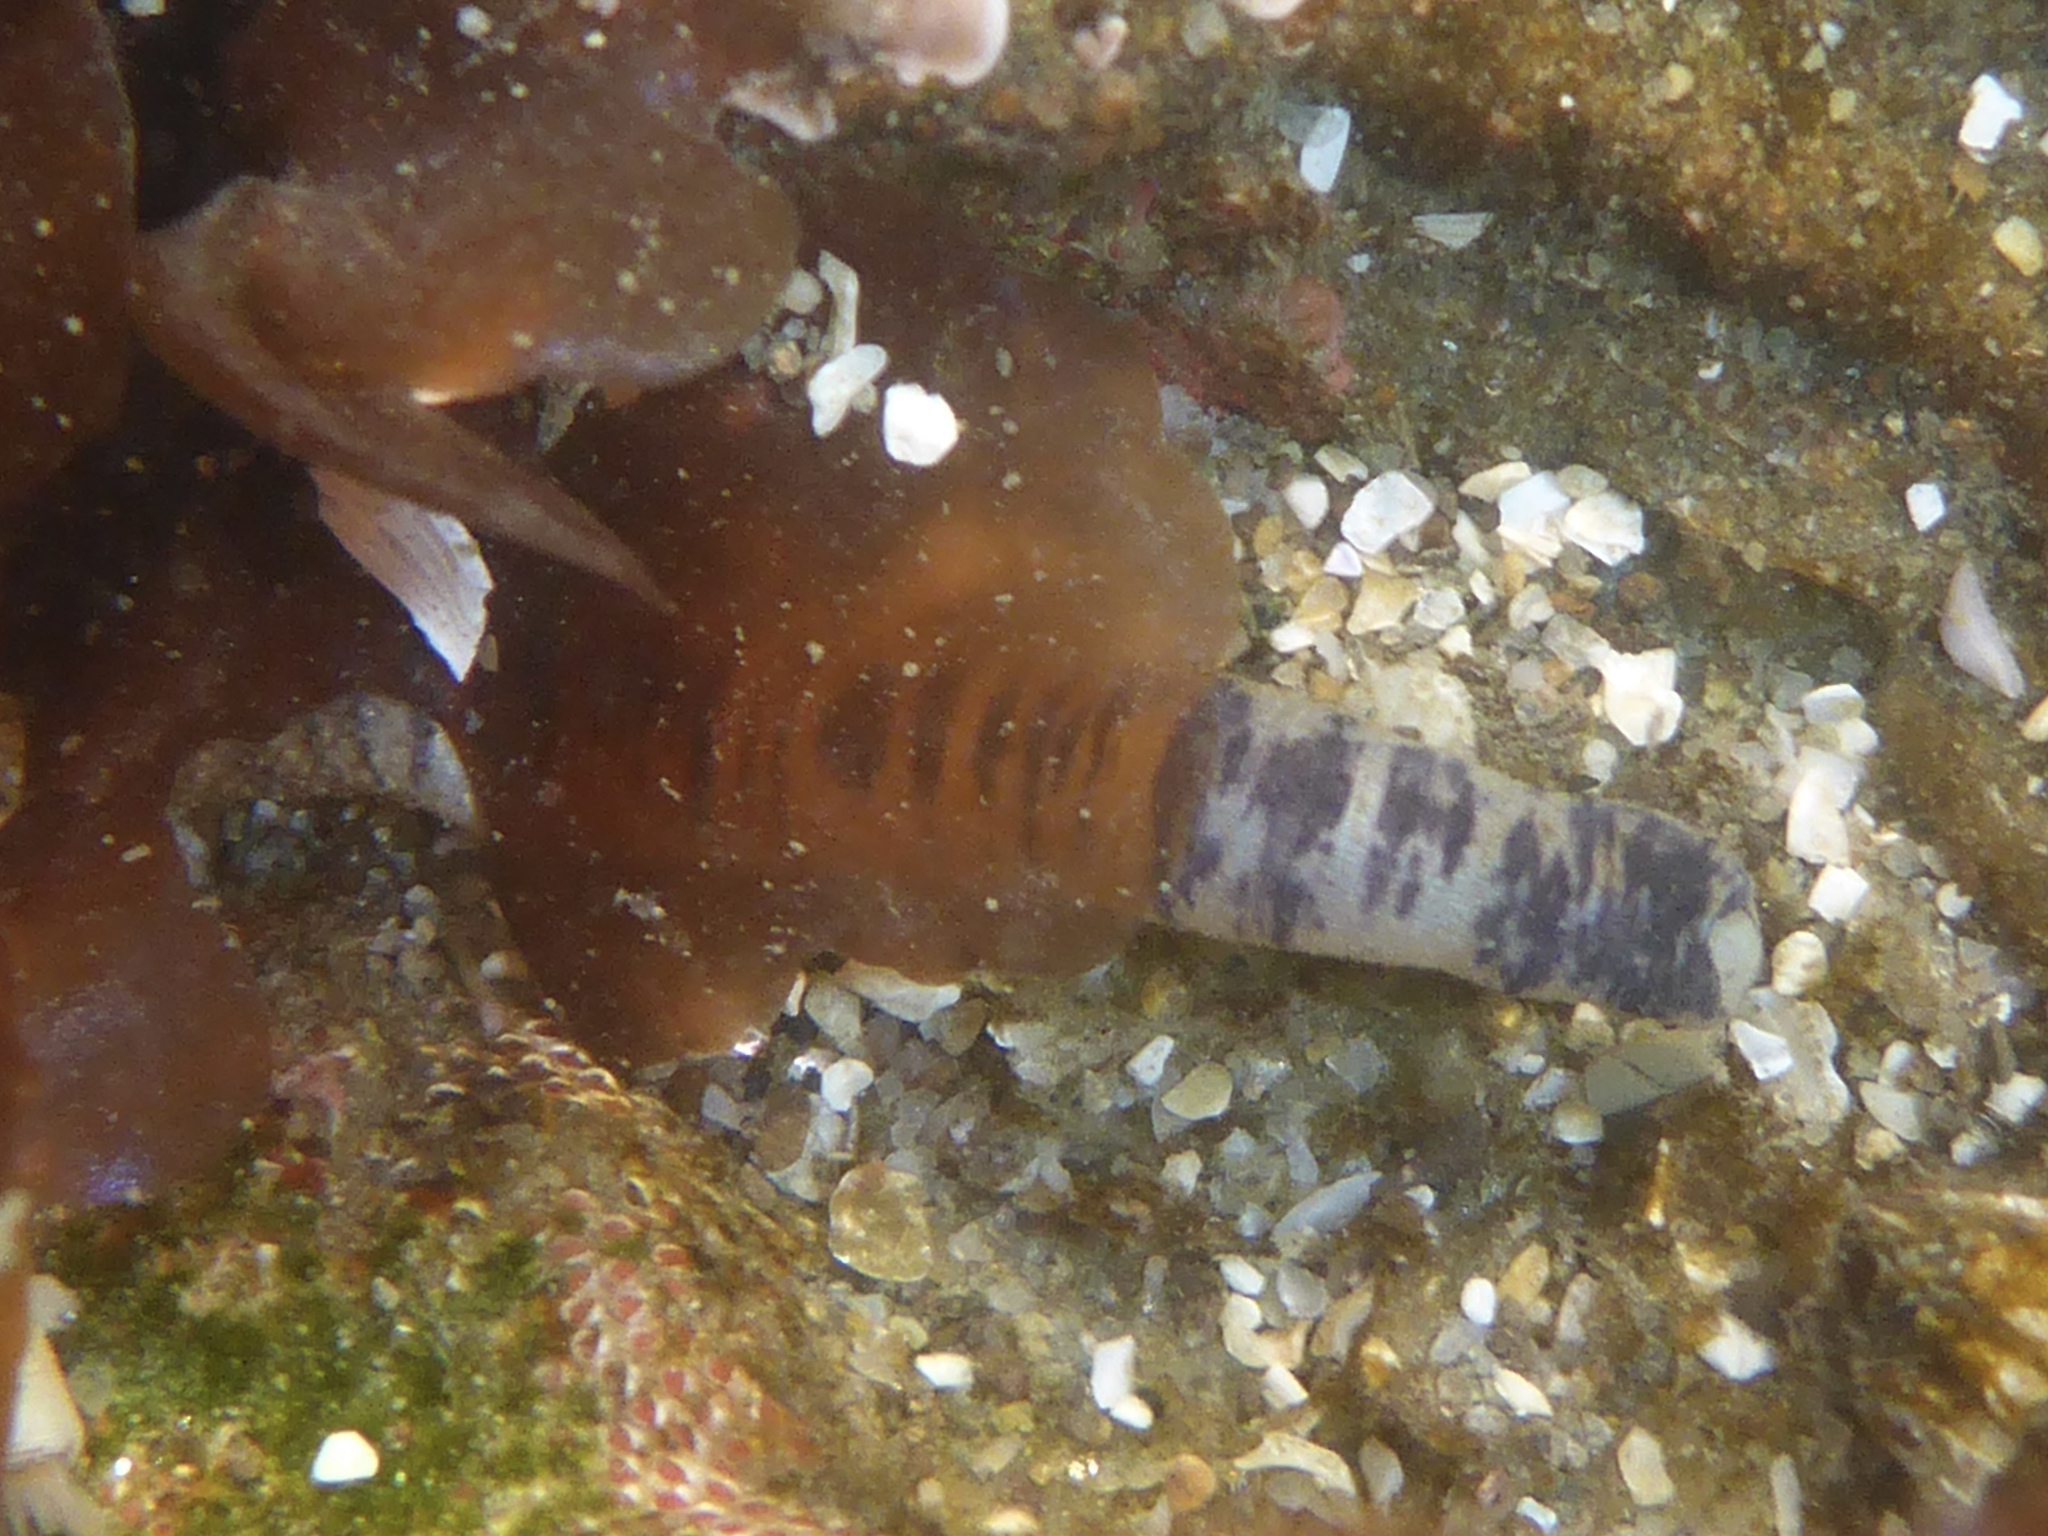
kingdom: Animalia
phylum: Sipuncula
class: Phascolosomatidea
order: Phascolosomatiformes
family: Phascolosomatidae
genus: Phascolosoma
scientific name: Phascolosoma agassizii
